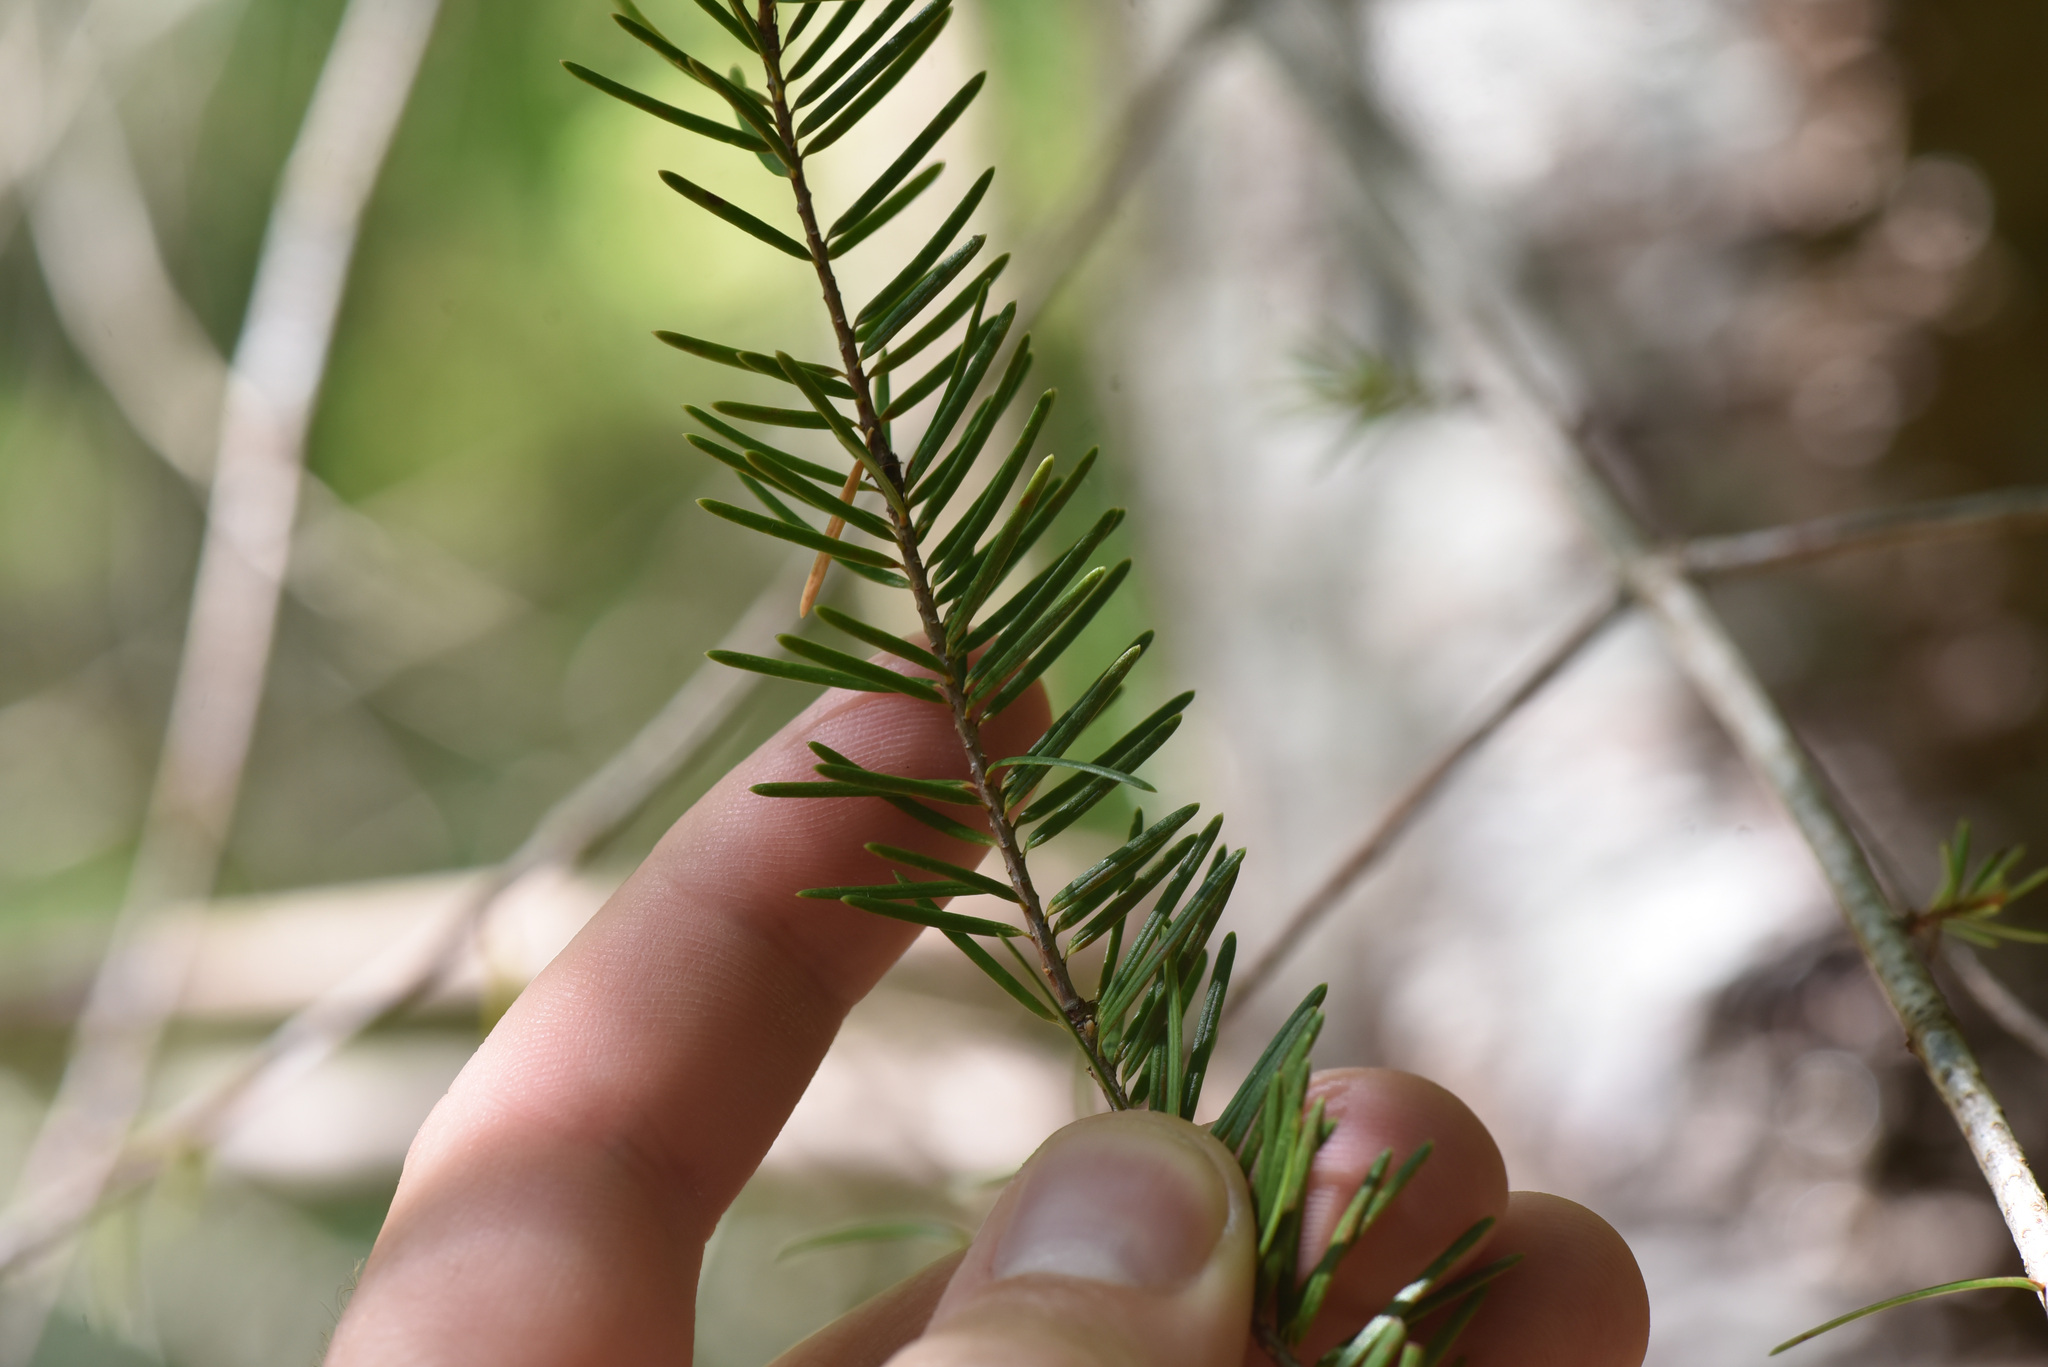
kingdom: Plantae
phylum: Tracheophyta
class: Pinopsida
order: Pinales
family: Pinaceae
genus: Pseudotsuga
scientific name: Pseudotsuga menziesii
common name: Douglas fir
